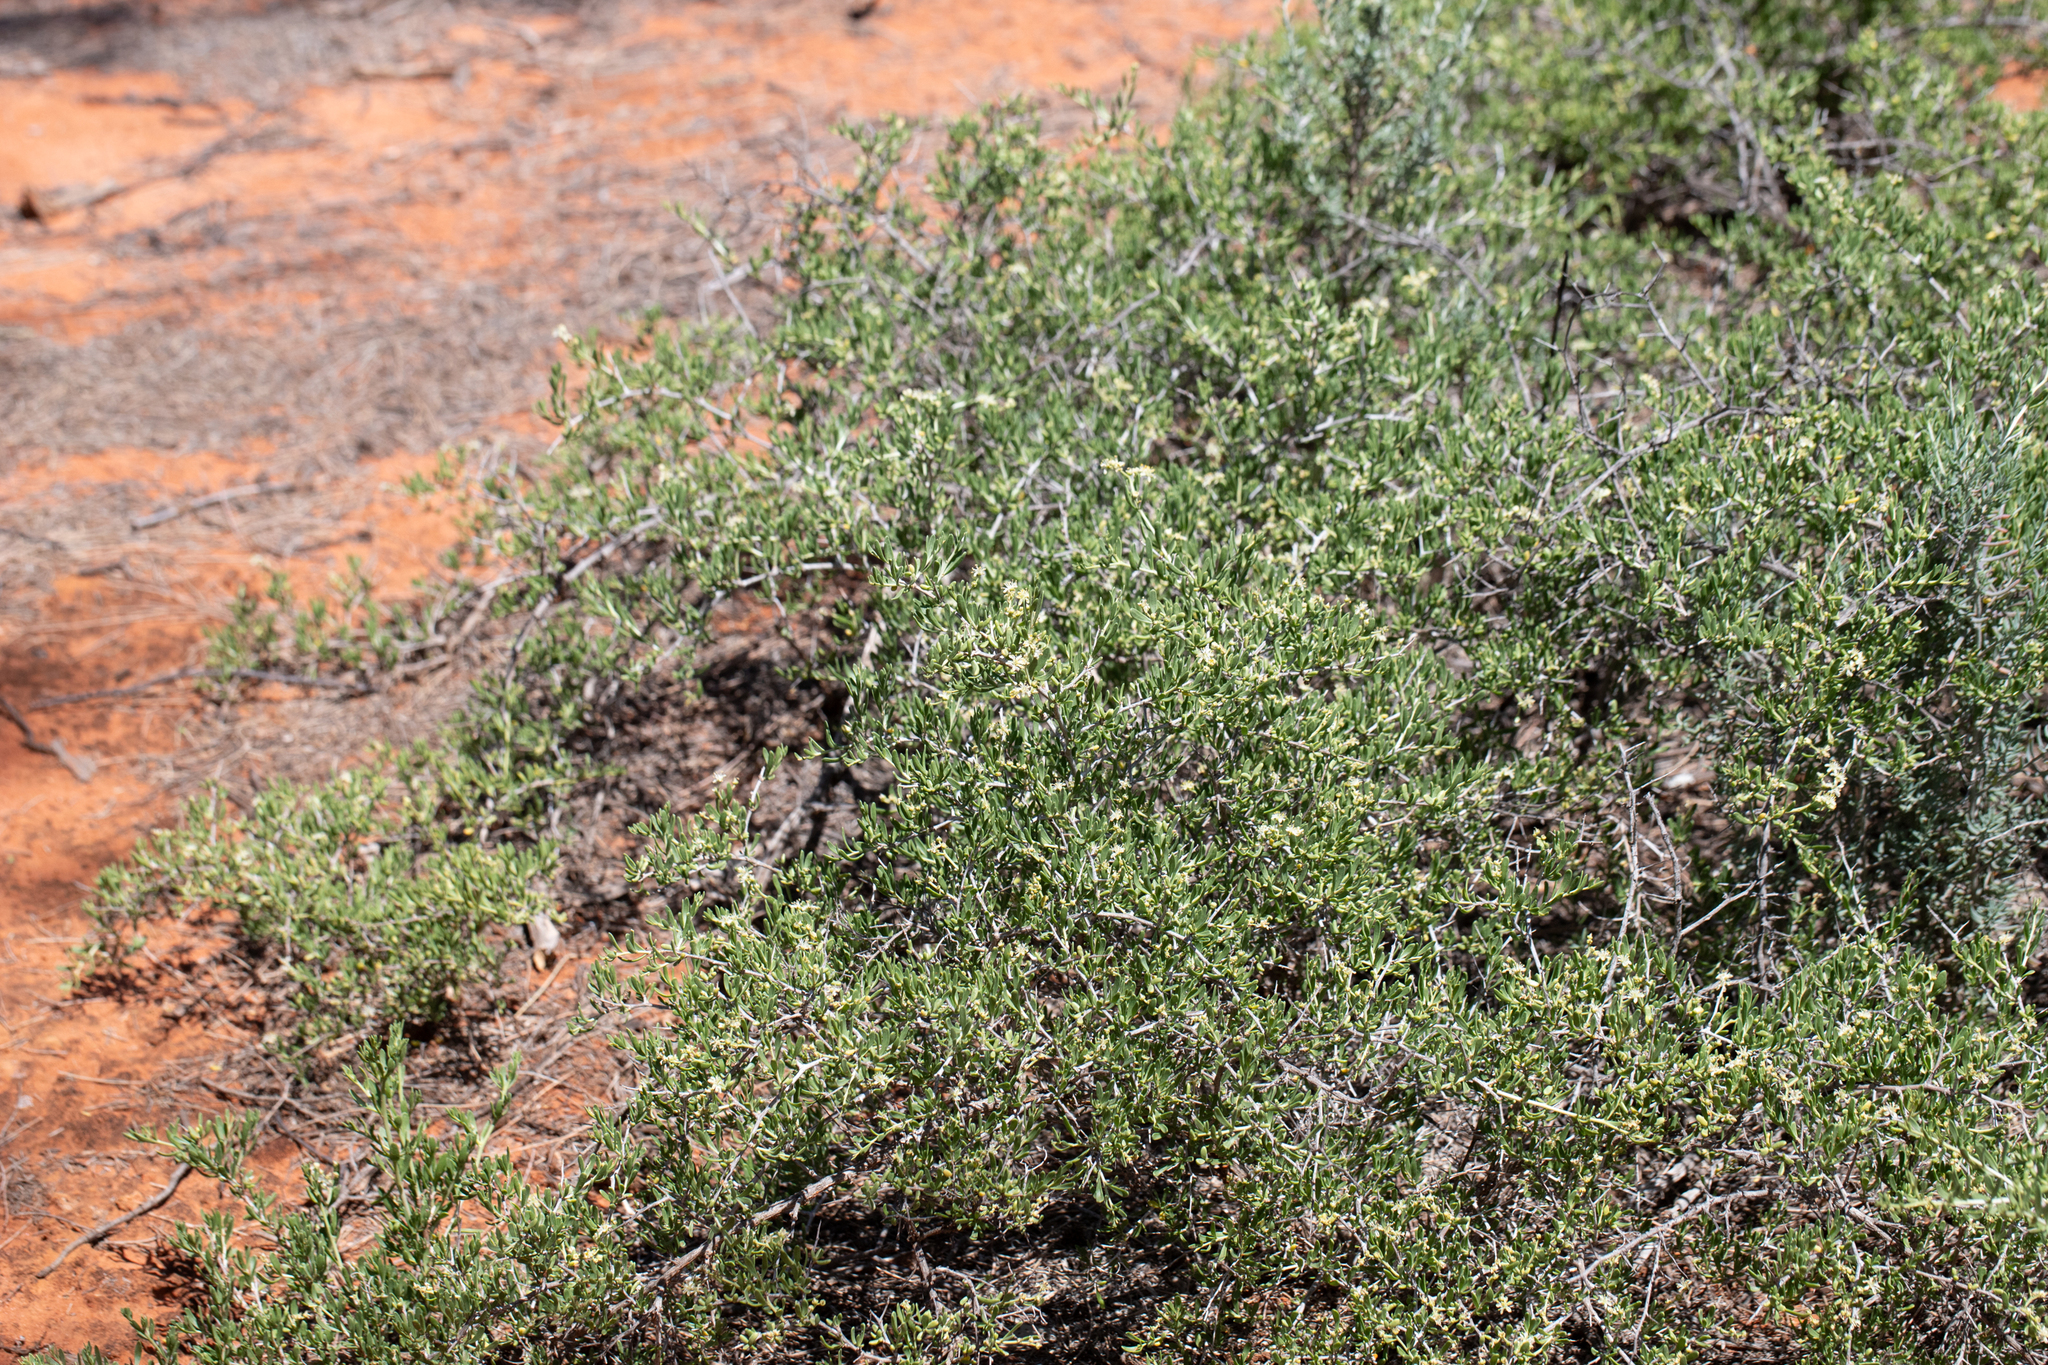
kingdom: Plantae
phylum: Tracheophyta
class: Magnoliopsida
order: Sapindales
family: Nitrariaceae
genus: Nitraria
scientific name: Nitraria billardierei
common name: Dillonbush
